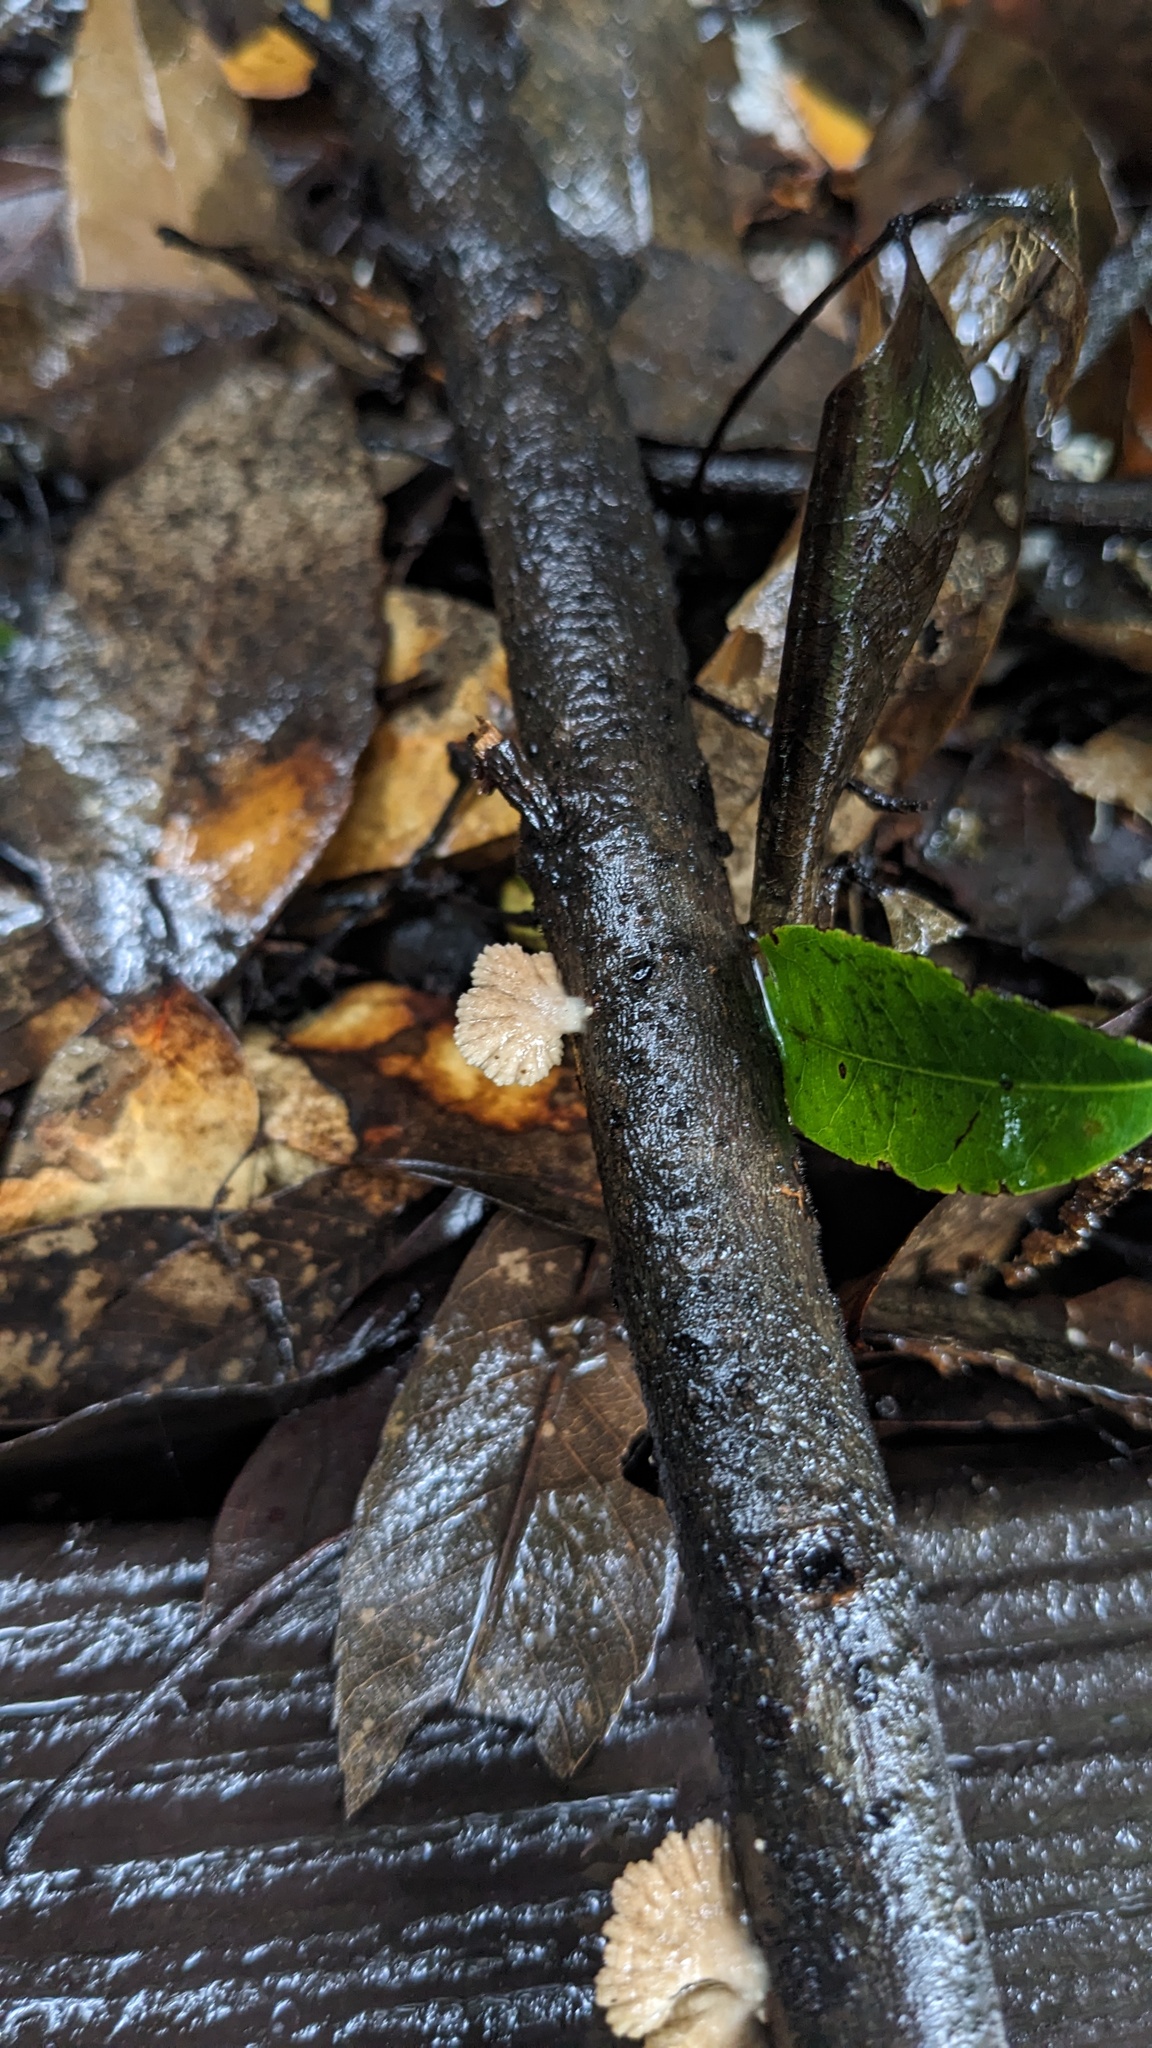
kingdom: Fungi
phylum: Basidiomycota
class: Agaricomycetes
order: Agaricales
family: Schizophyllaceae
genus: Schizophyllum
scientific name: Schizophyllum commune
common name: Common porecrust
